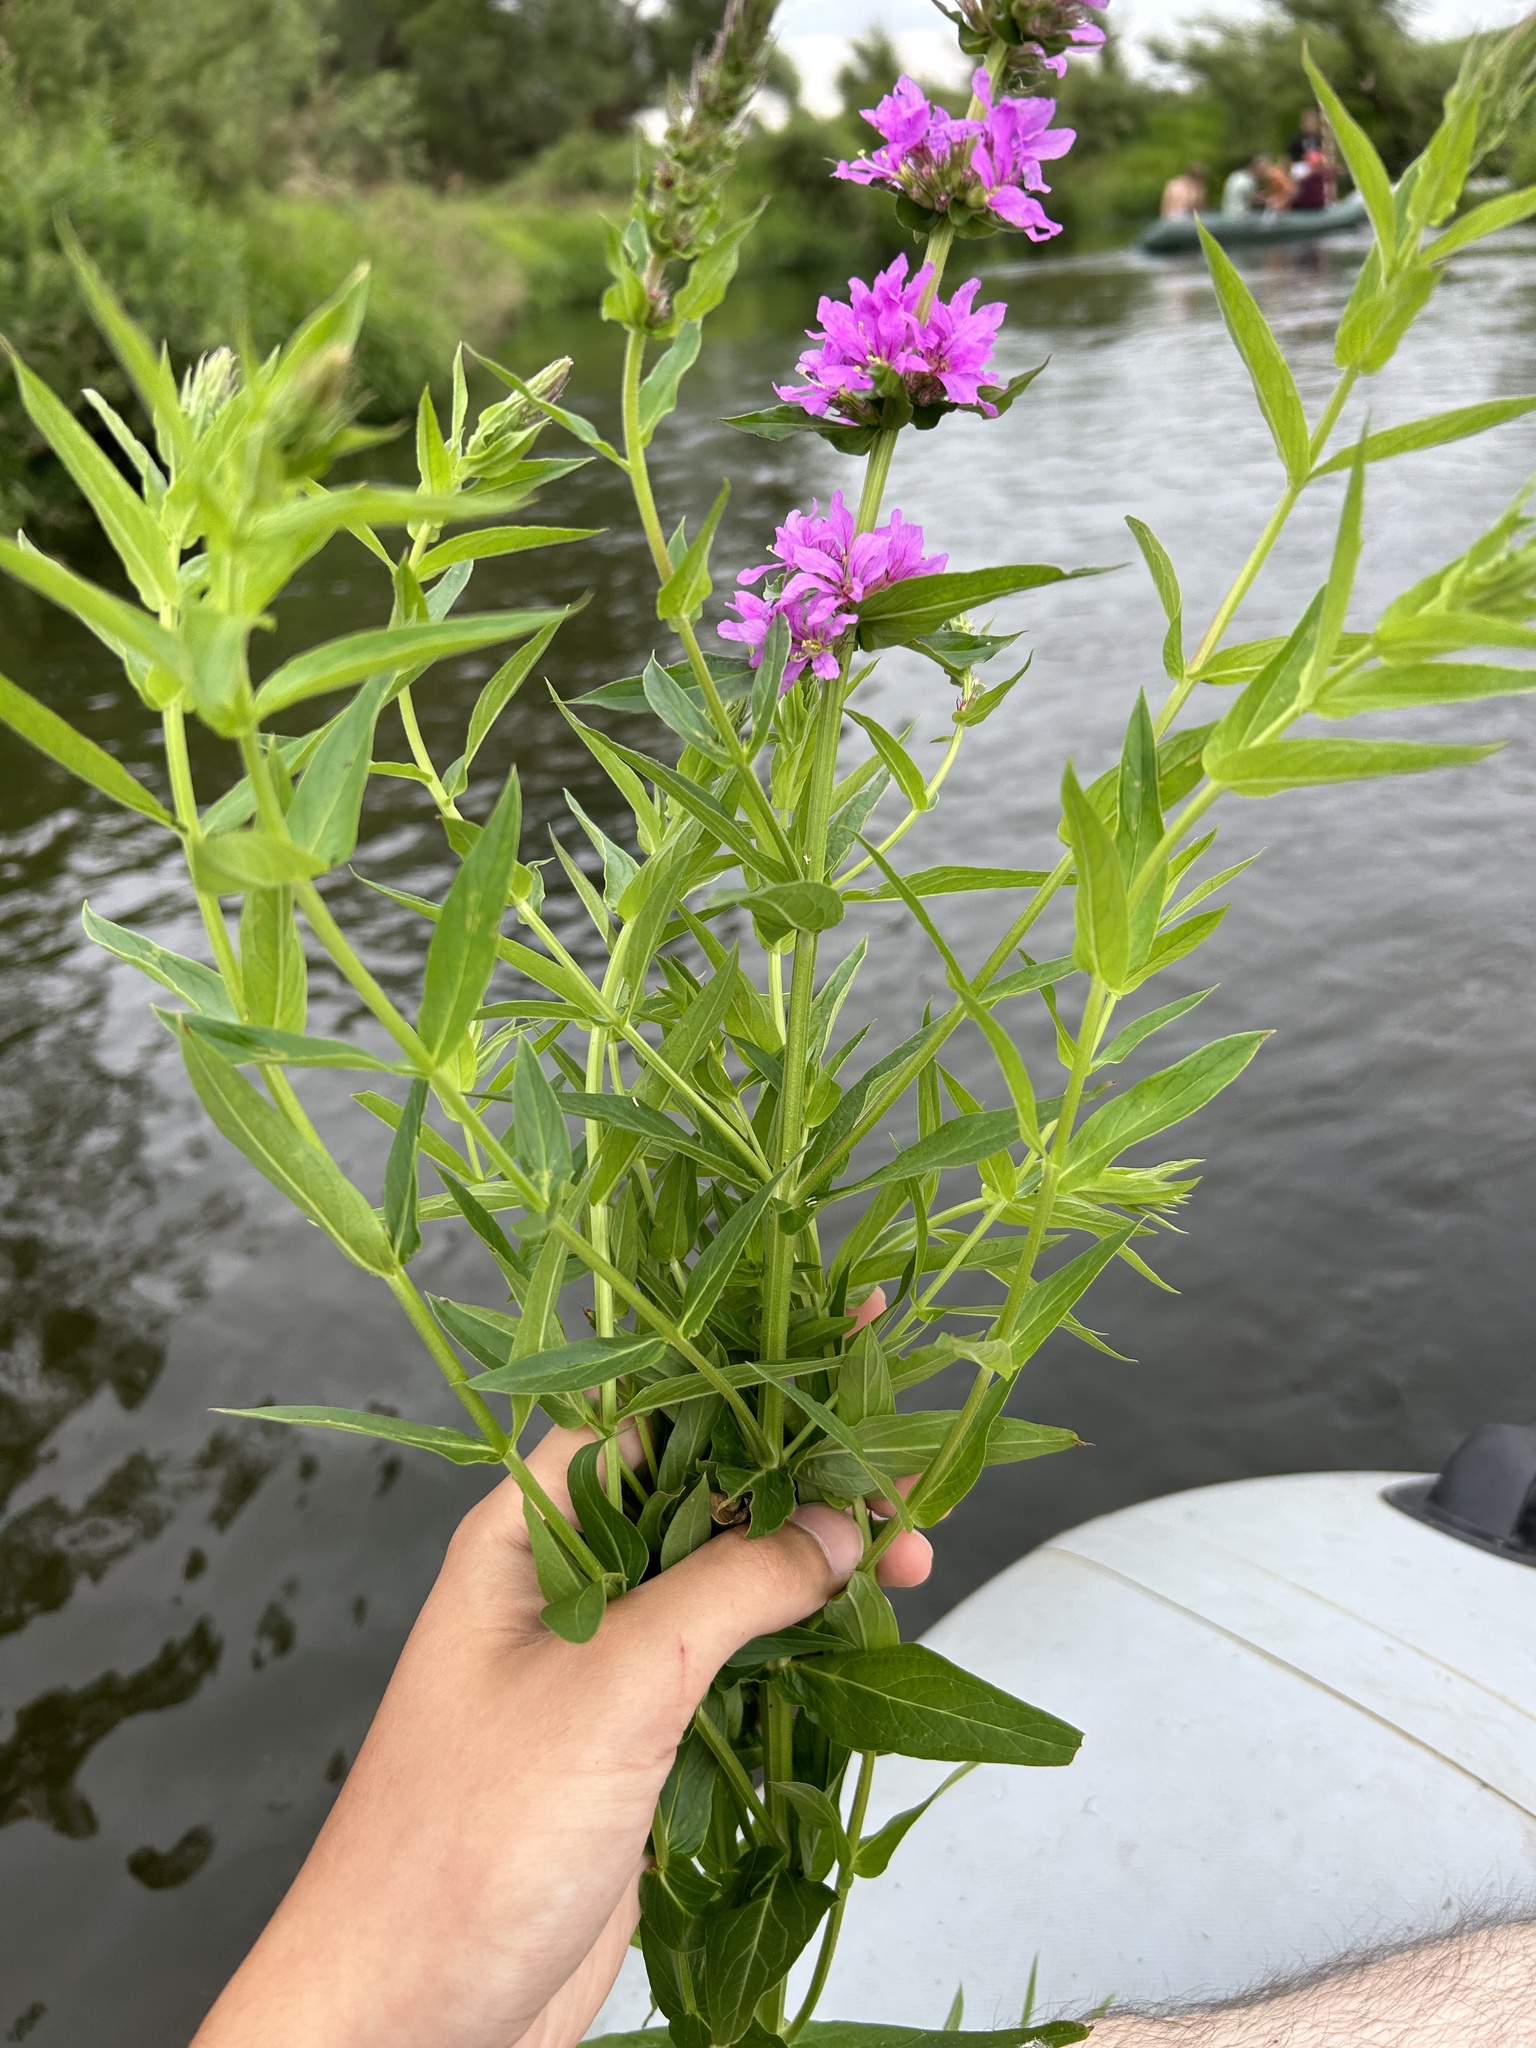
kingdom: Plantae
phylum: Tracheophyta
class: Magnoliopsida
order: Myrtales
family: Lythraceae
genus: Lythrum
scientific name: Lythrum salicaria
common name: Purple loosestrife
